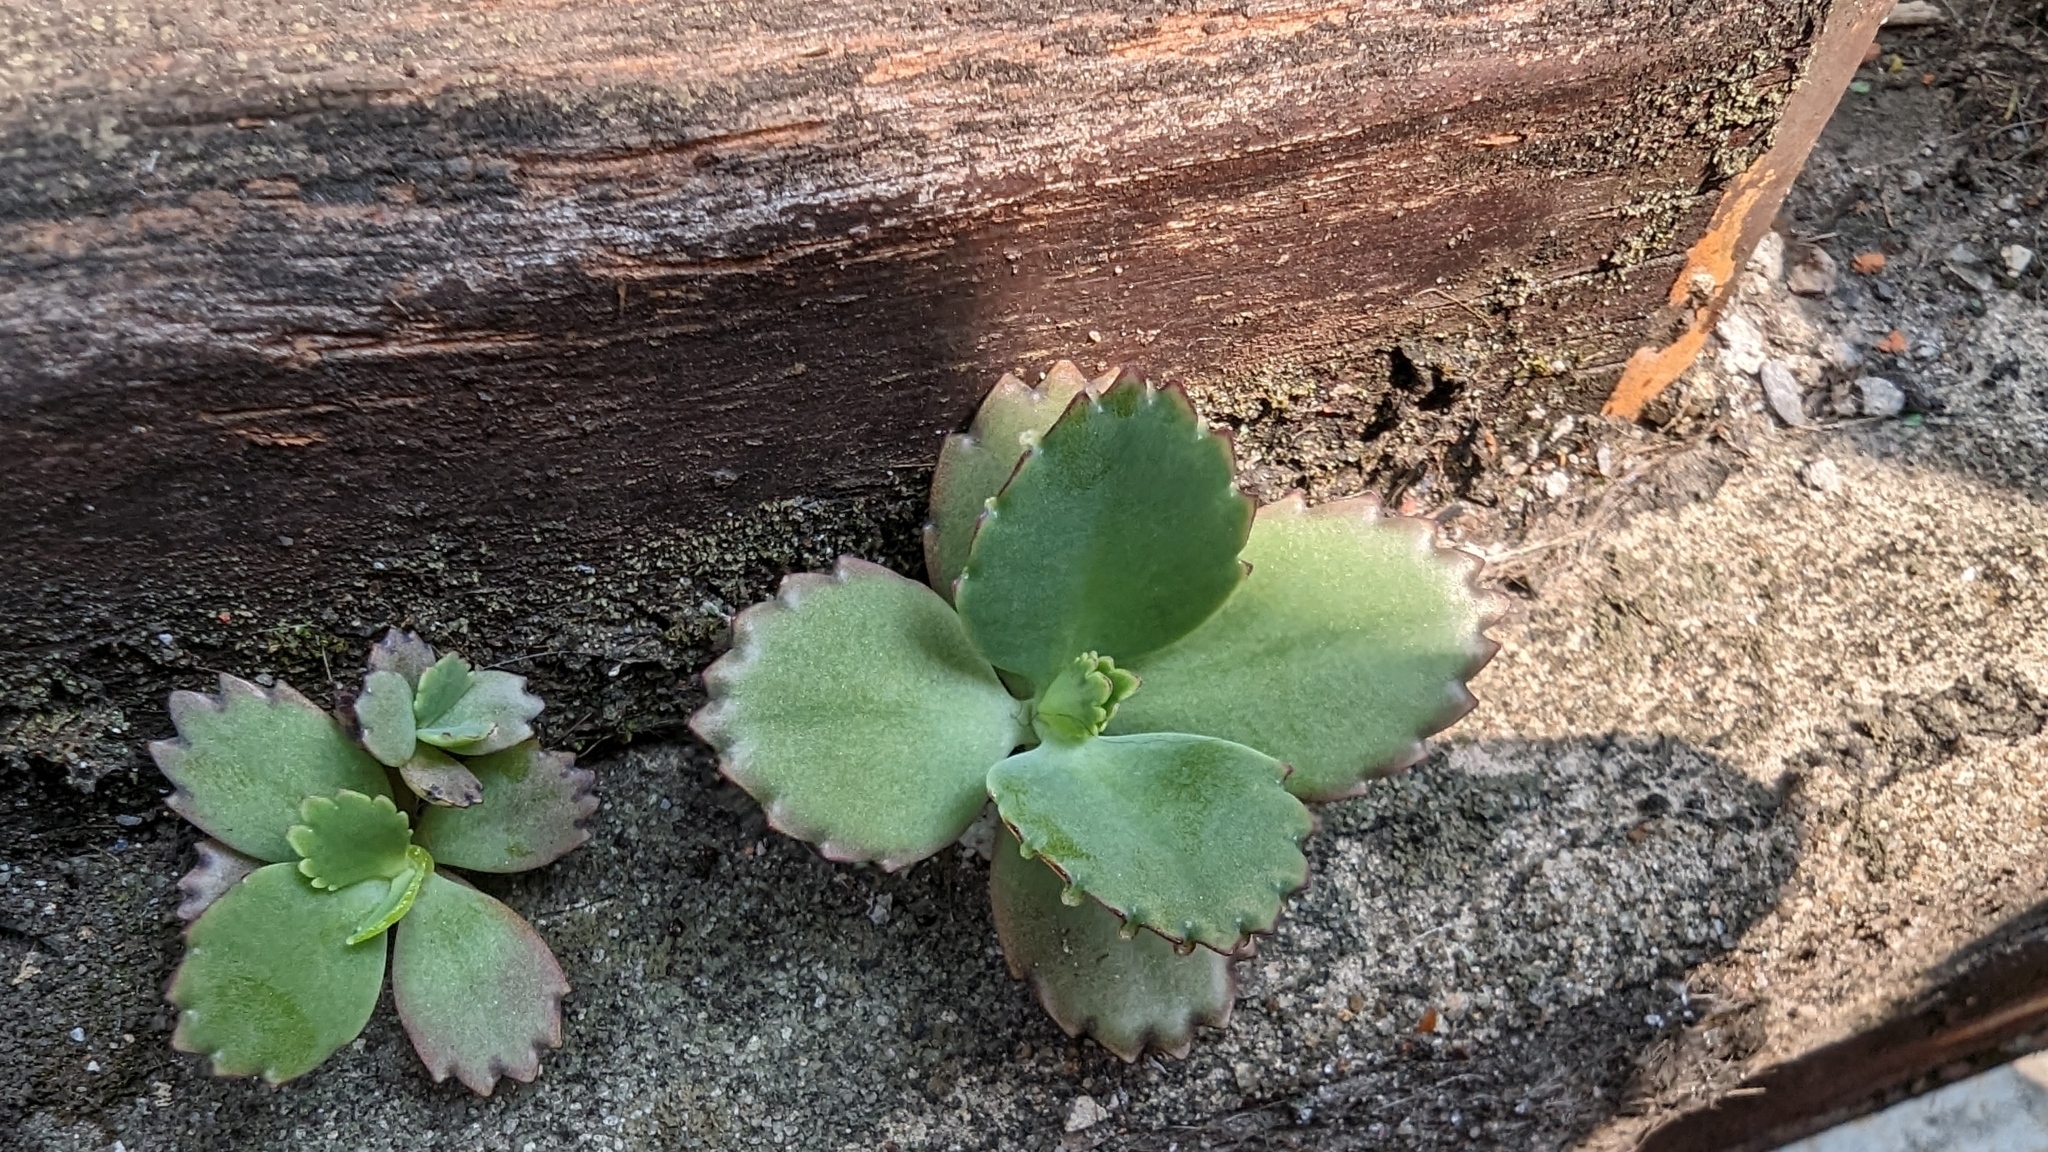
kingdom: Plantae
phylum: Tracheophyta
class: Magnoliopsida
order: Saxifragales
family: Crassulaceae
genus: Kalanchoe
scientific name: Kalanchoe laetivirens
